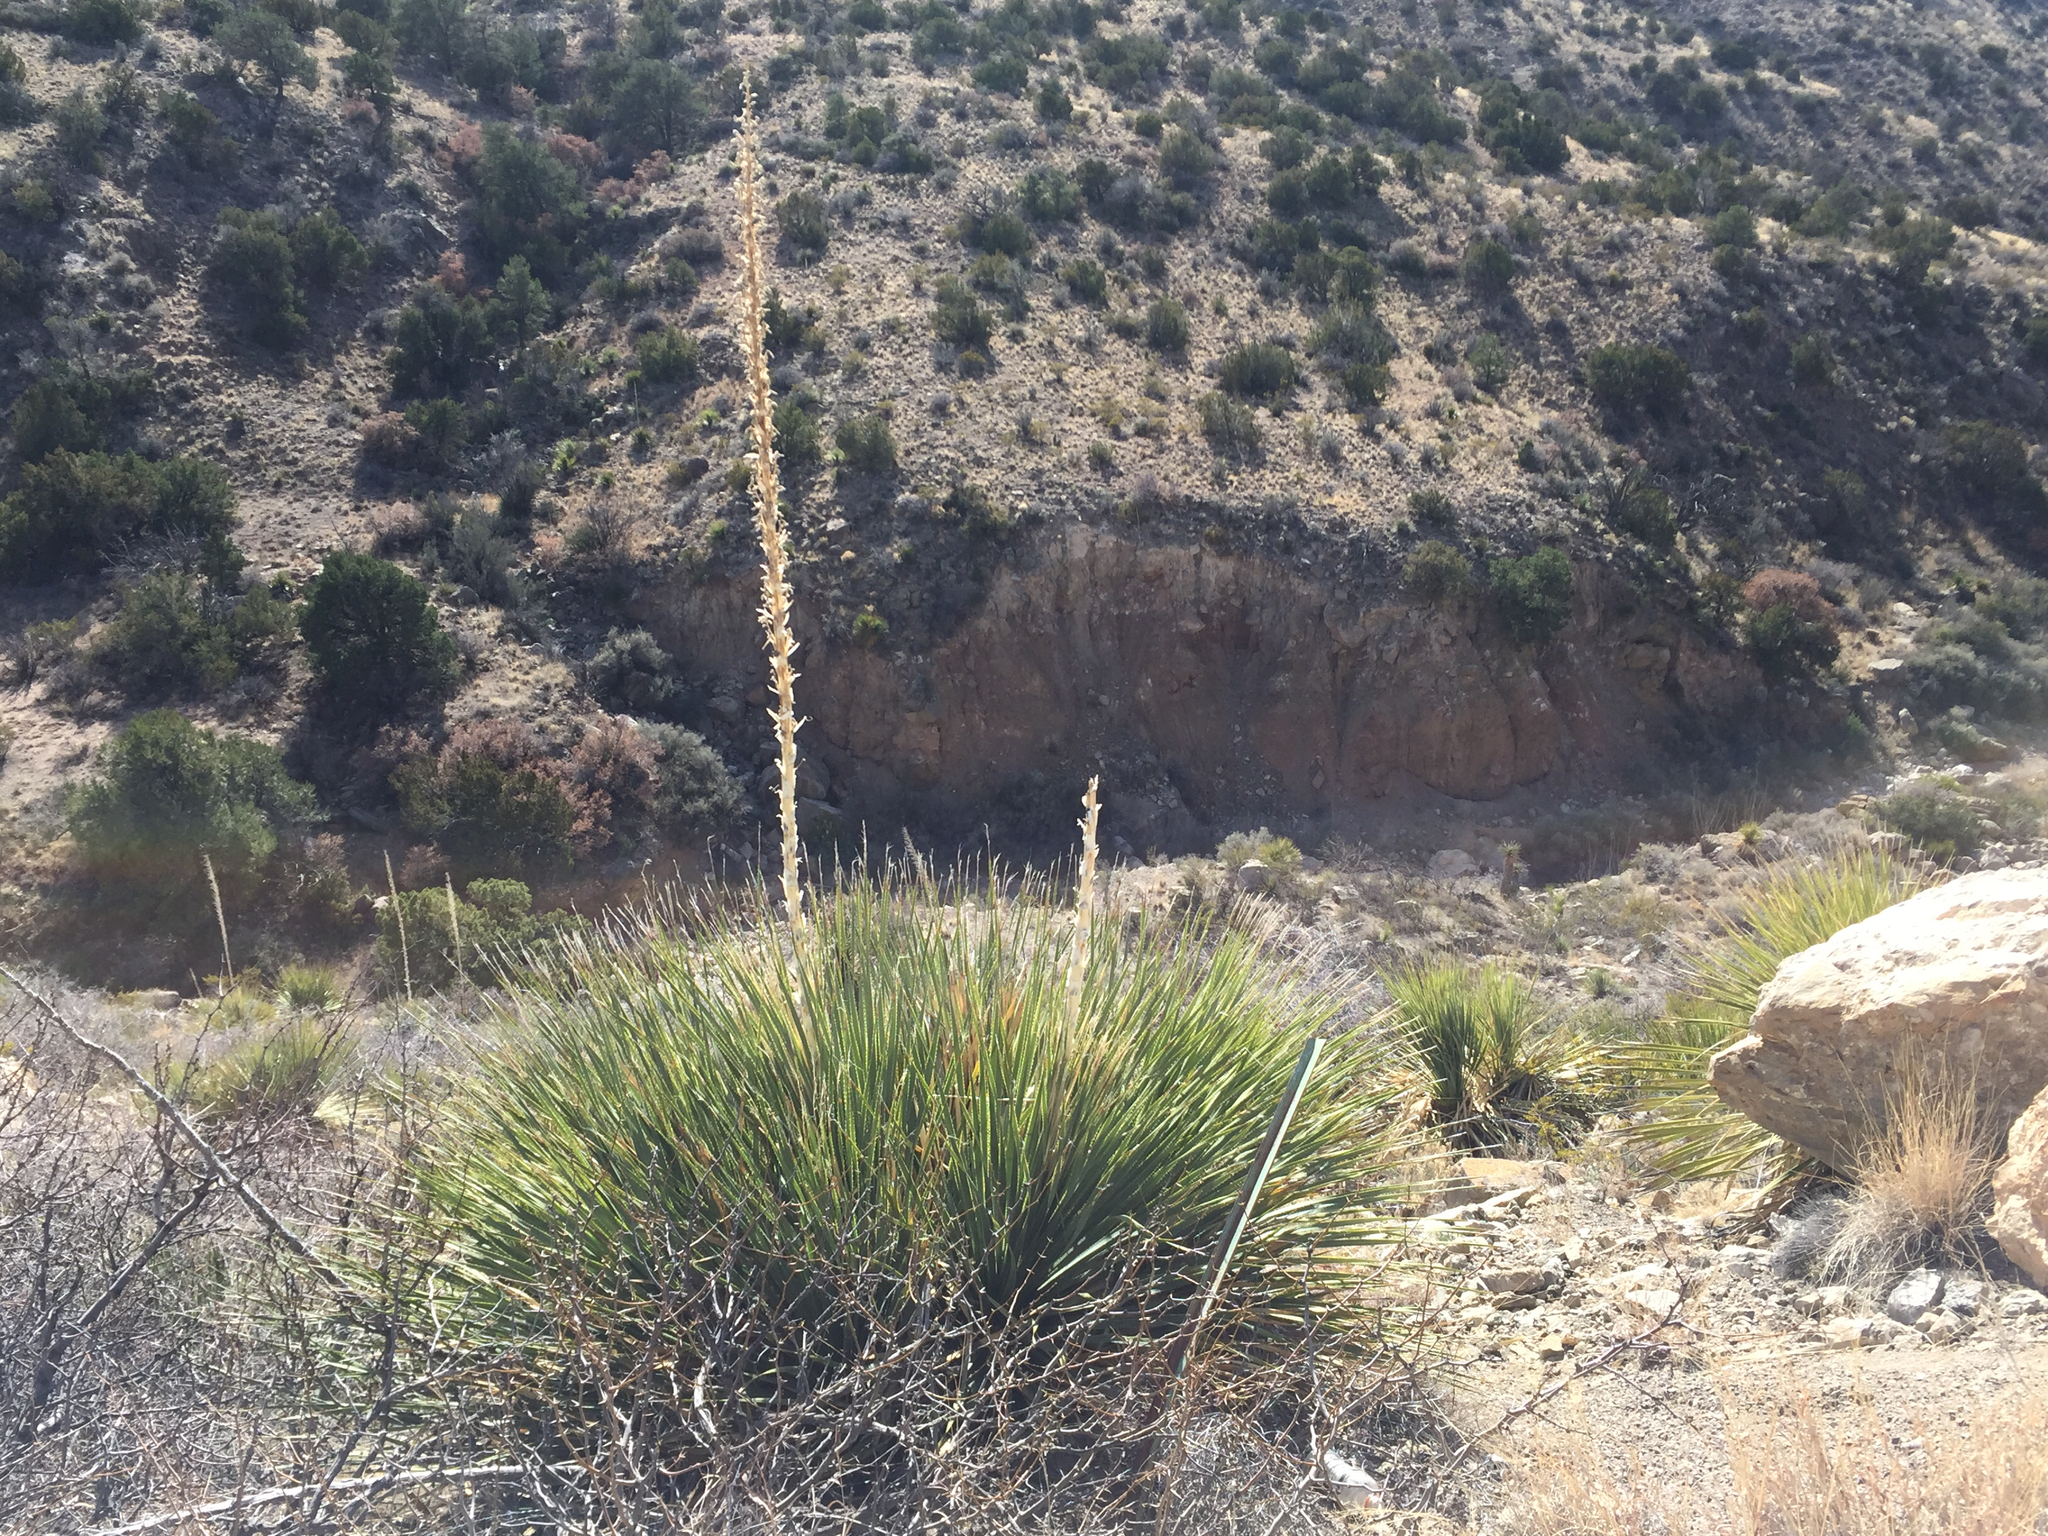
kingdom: Plantae
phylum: Tracheophyta
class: Liliopsida
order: Asparagales
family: Asparagaceae
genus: Dasylirion
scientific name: Dasylirion wheeleri
